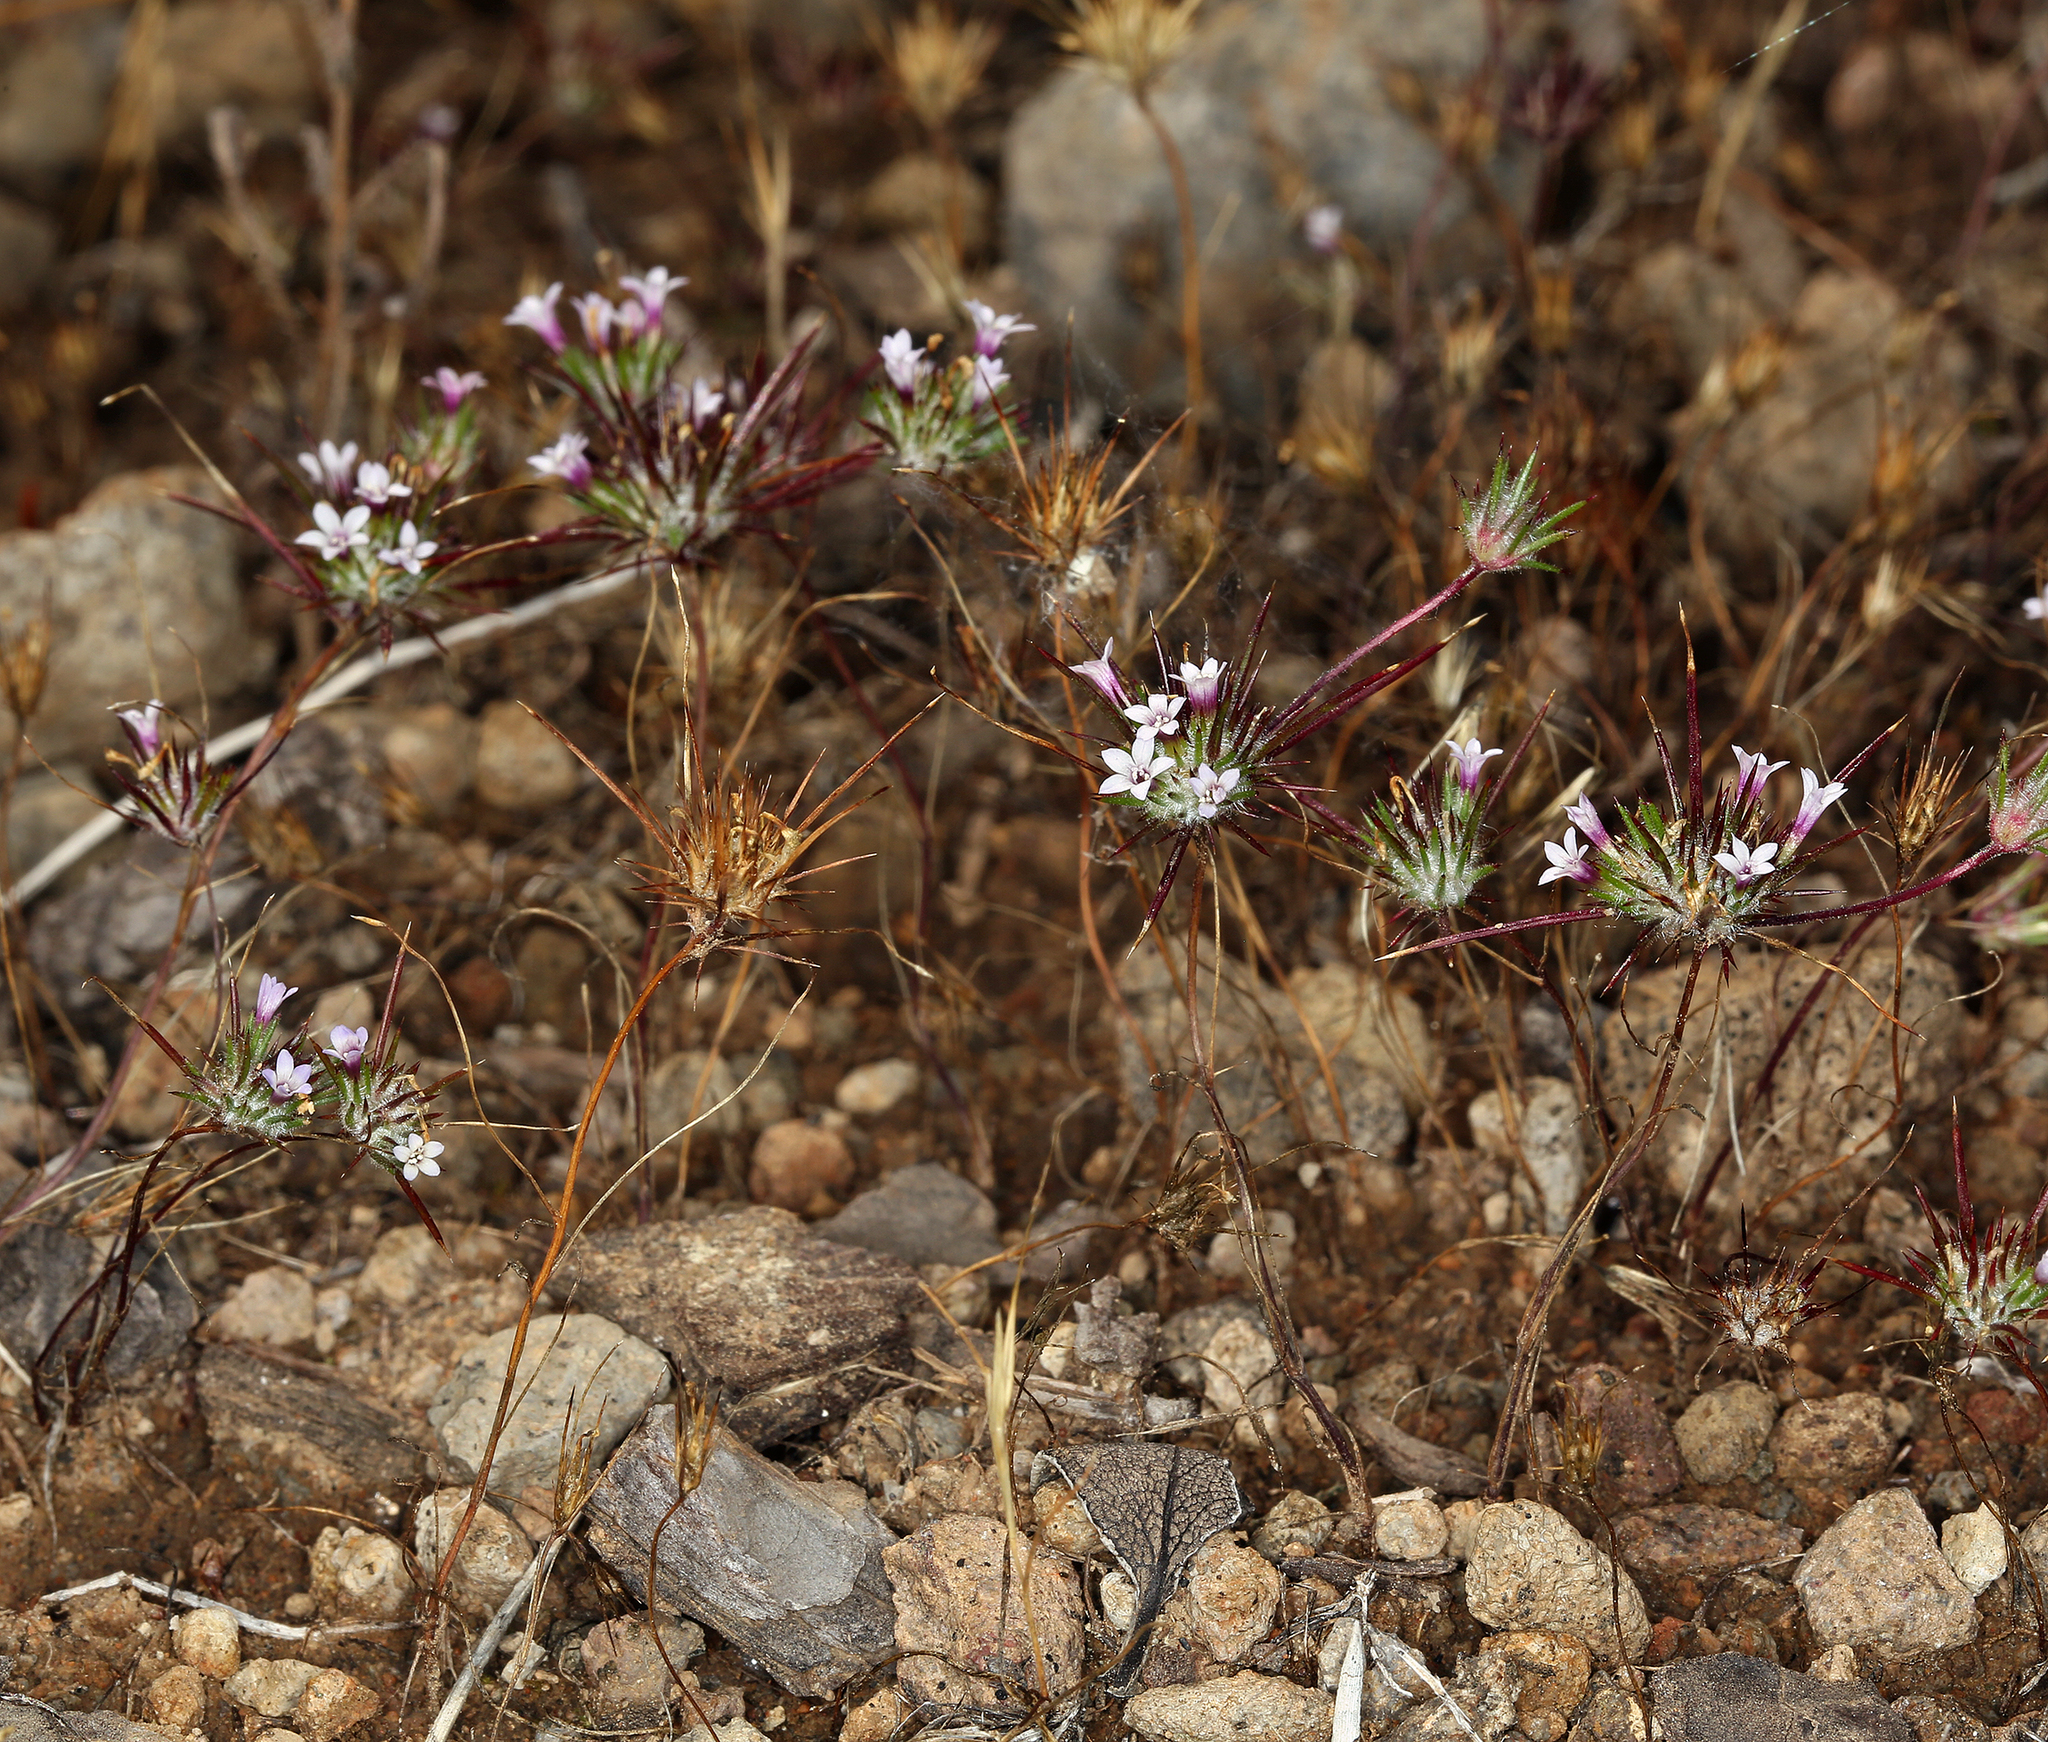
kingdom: Plantae
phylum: Tracheophyta
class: Magnoliopsida
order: Ericales
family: Polemoniaceae
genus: Navarretia
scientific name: Navarretia torreyella
